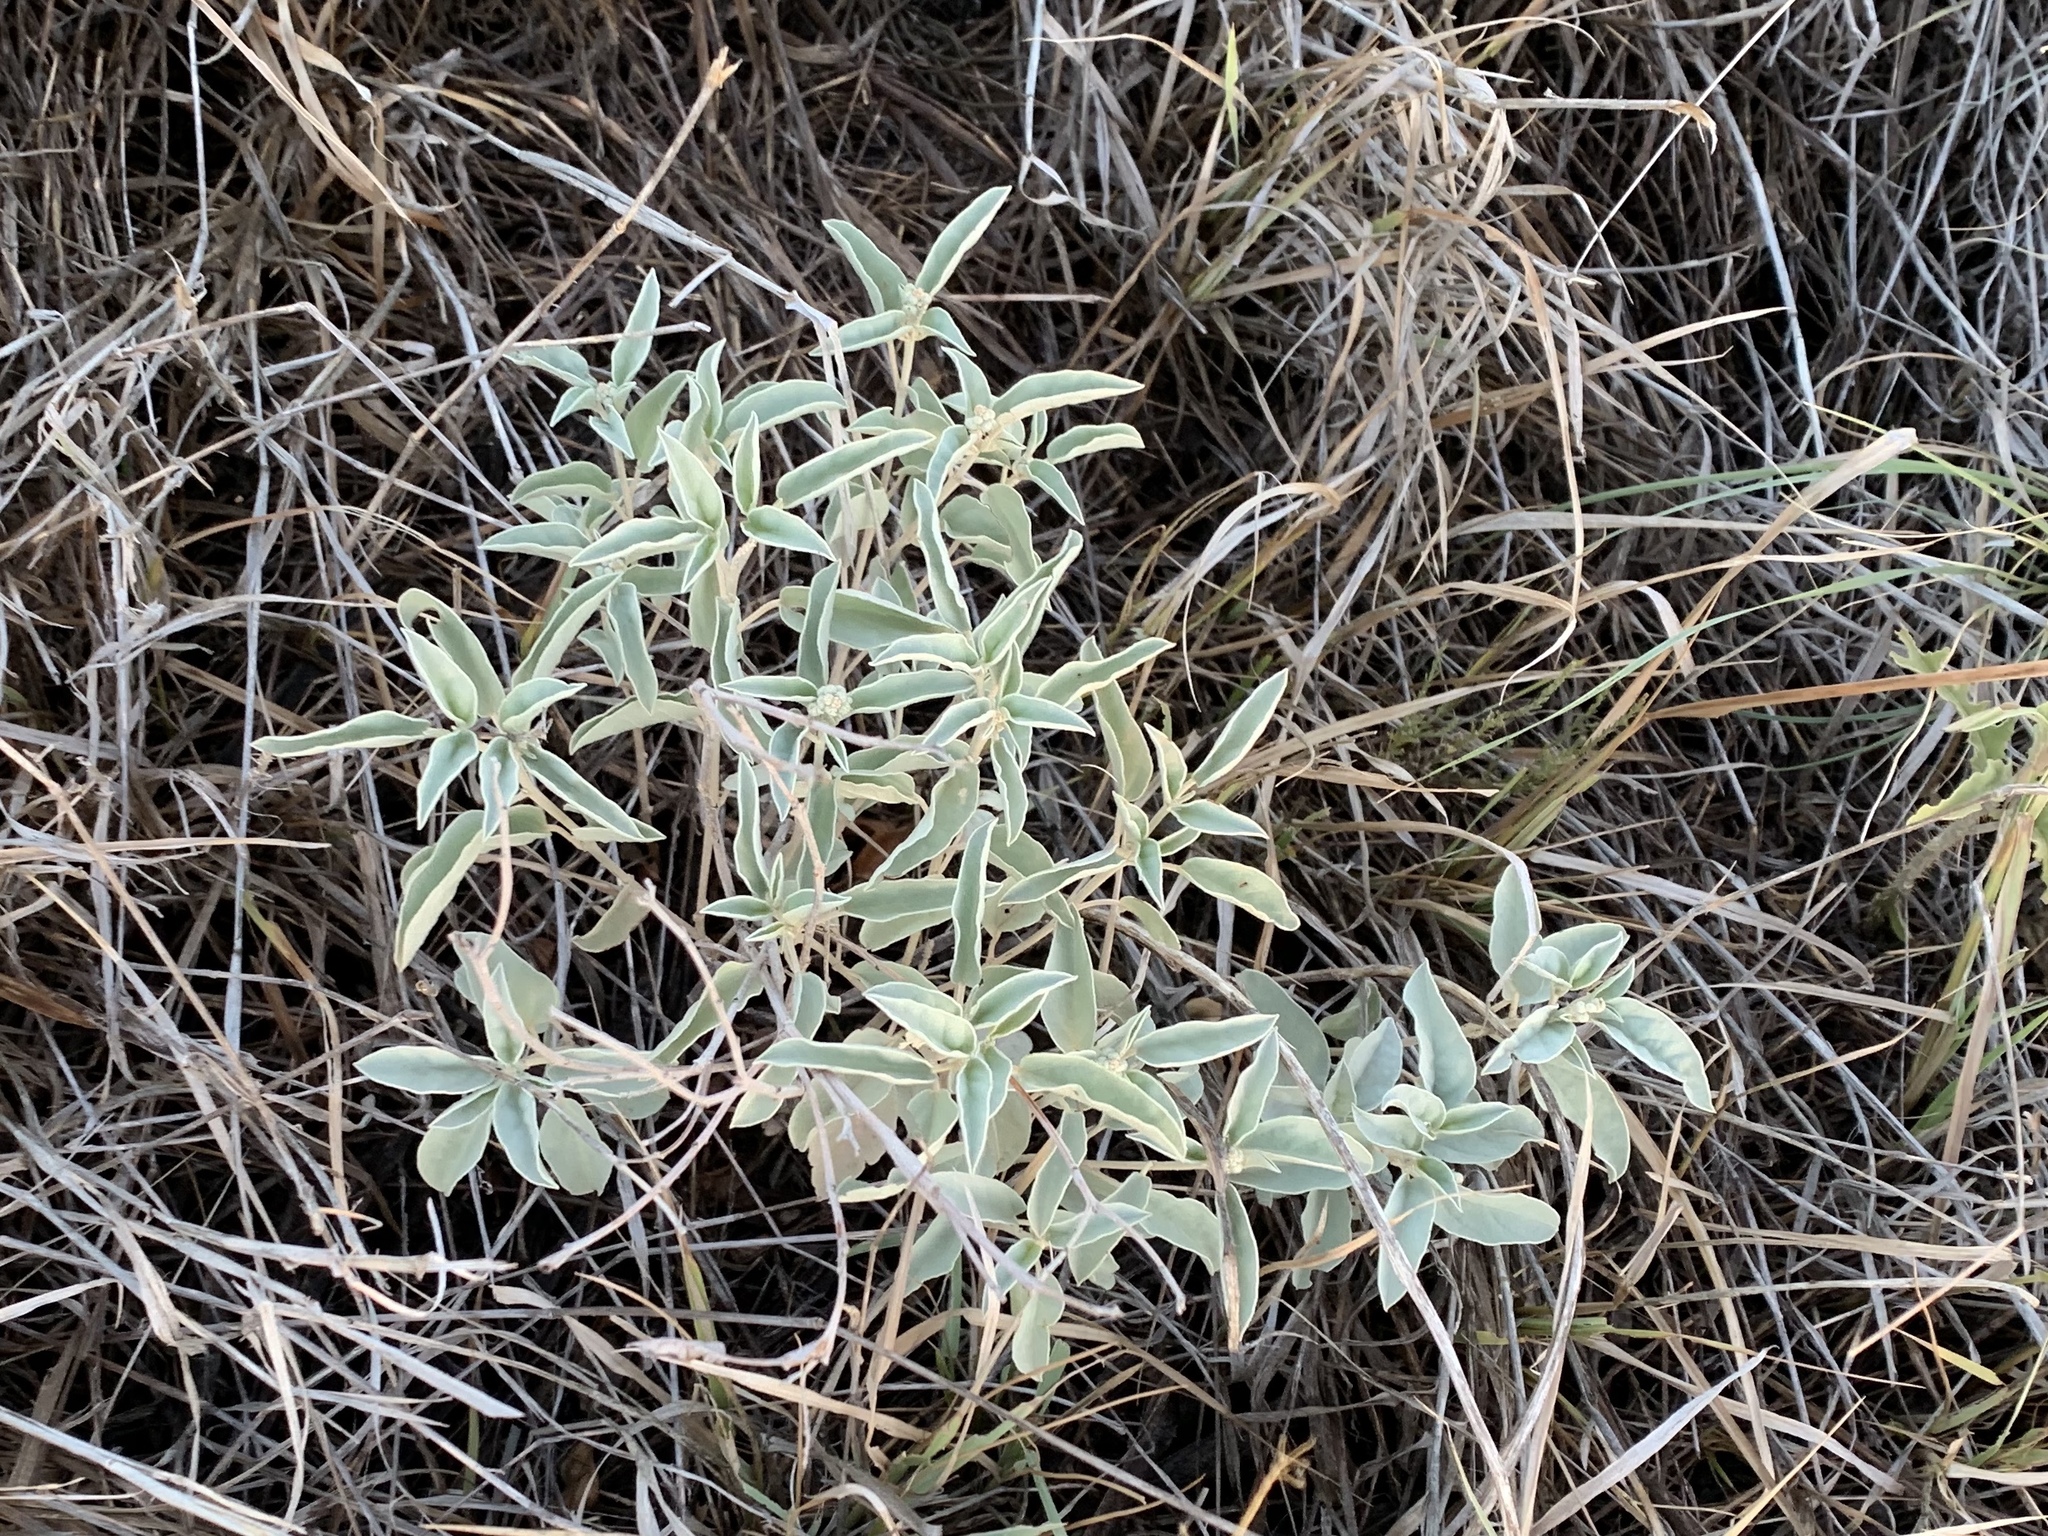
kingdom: Plantae
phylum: Tracheophyta
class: Magnoliopsida
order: Malpighiales
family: Euphorbiaceae
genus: Croton
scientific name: Croton pottsii
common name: Leatherweed
